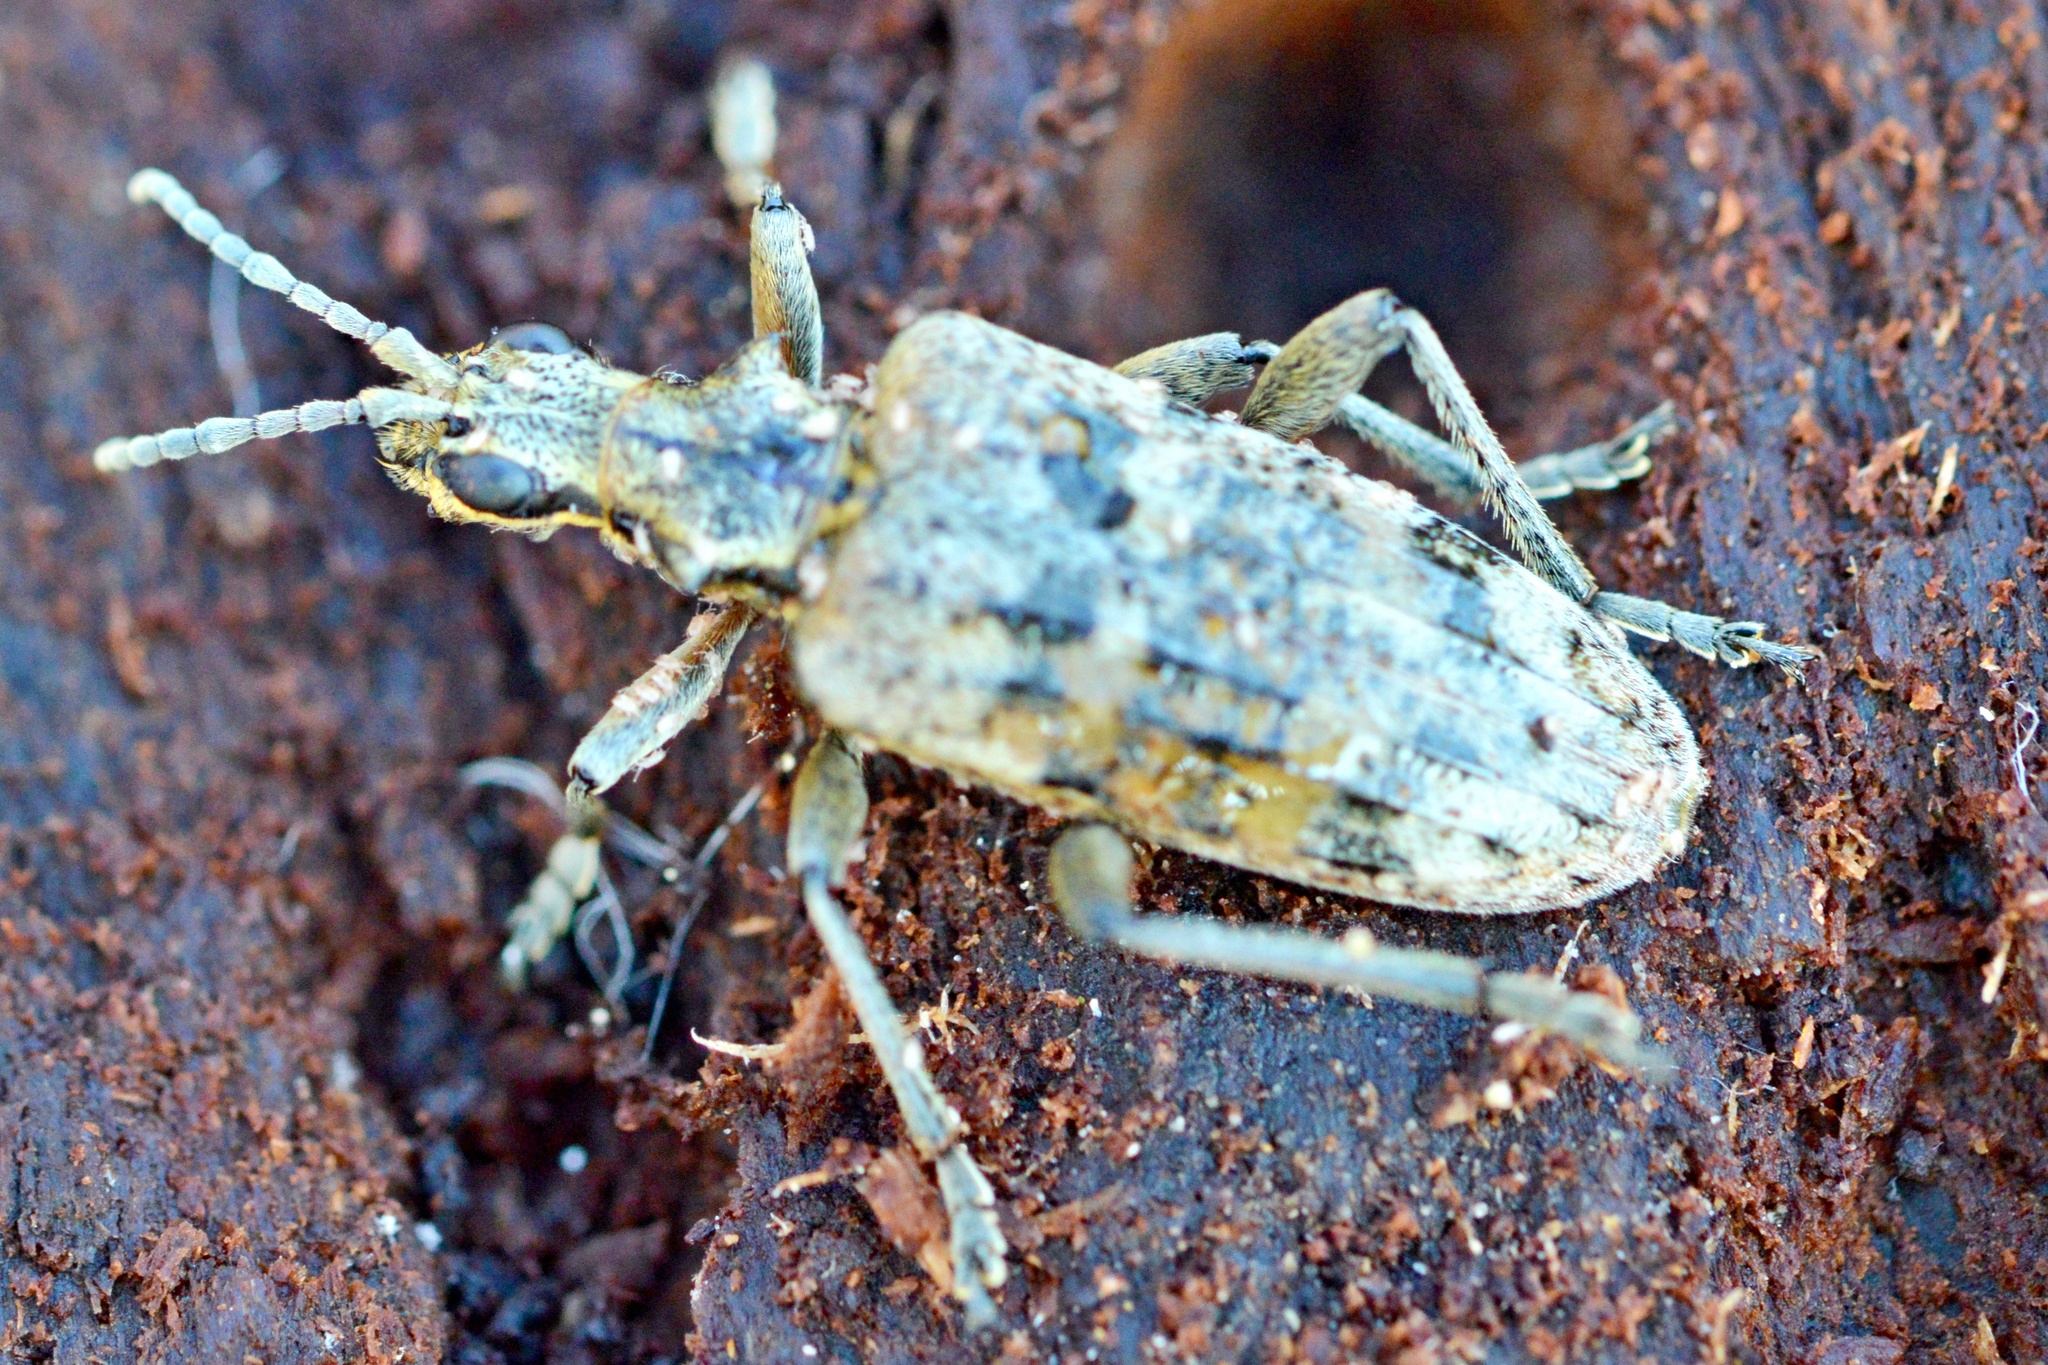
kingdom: Animalia
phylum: Arthropoda
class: Insecta
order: Coleoptera
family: Cerambycidae
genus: Rhagium
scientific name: Rhagium inquisitor
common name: Ribbed pine borer
